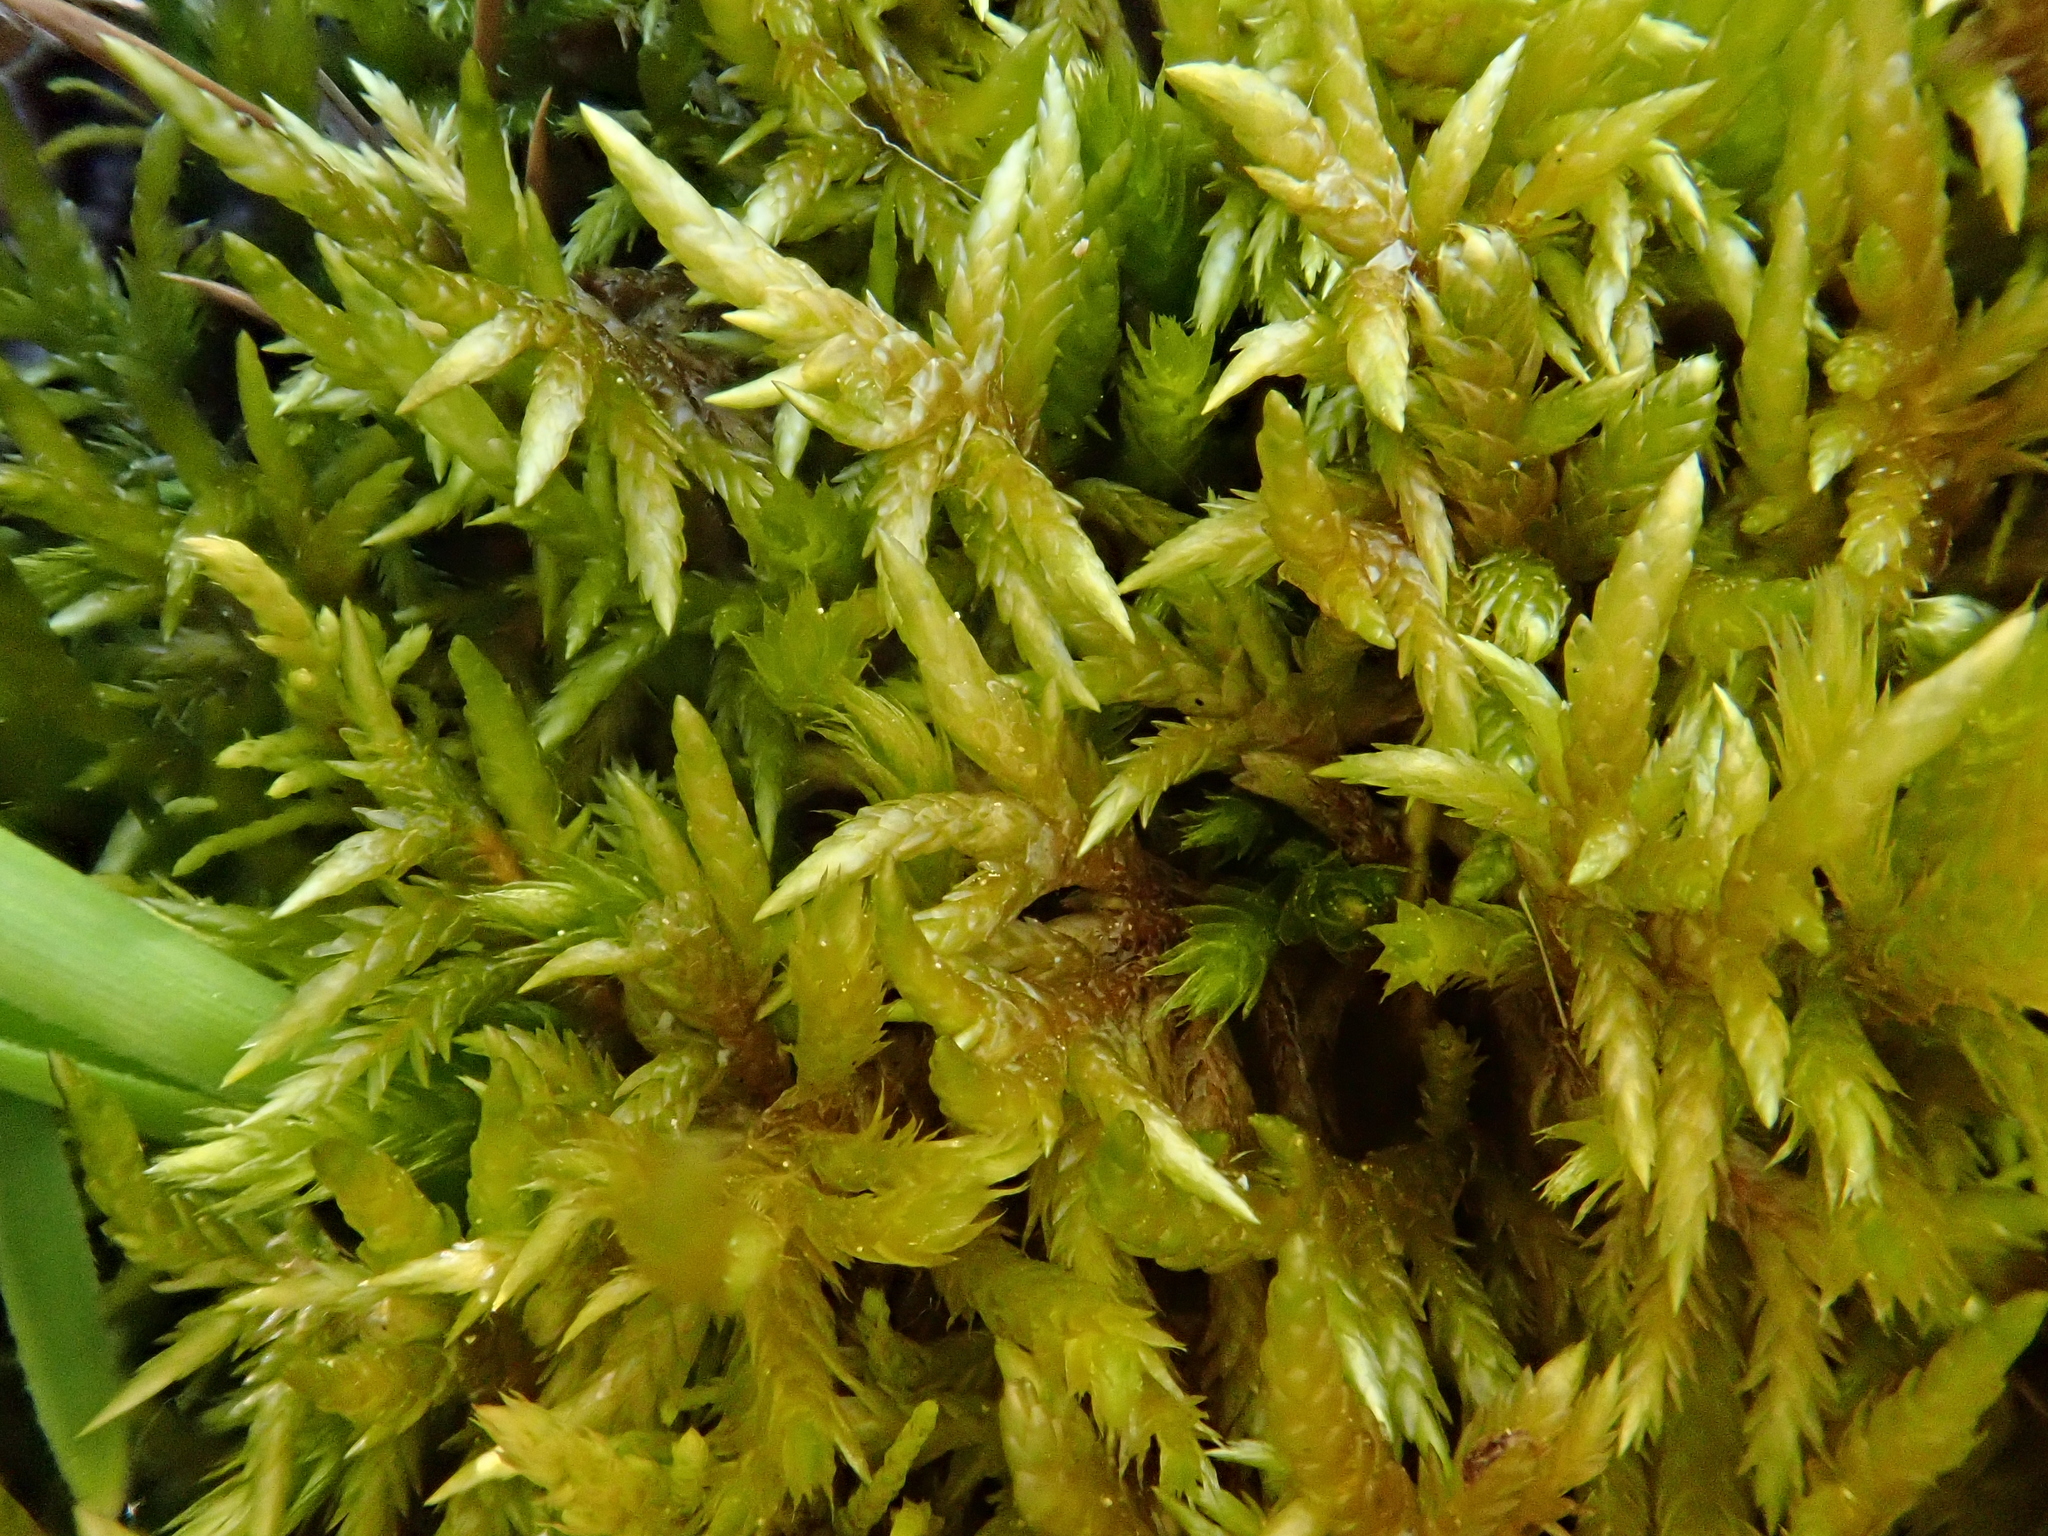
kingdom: Plantae
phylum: Bryophyta
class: Bryopsida
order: Hypnales
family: Entodontaceae
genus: Entodon
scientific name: Entodon concinnus
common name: Montagne's cylinder-moss
